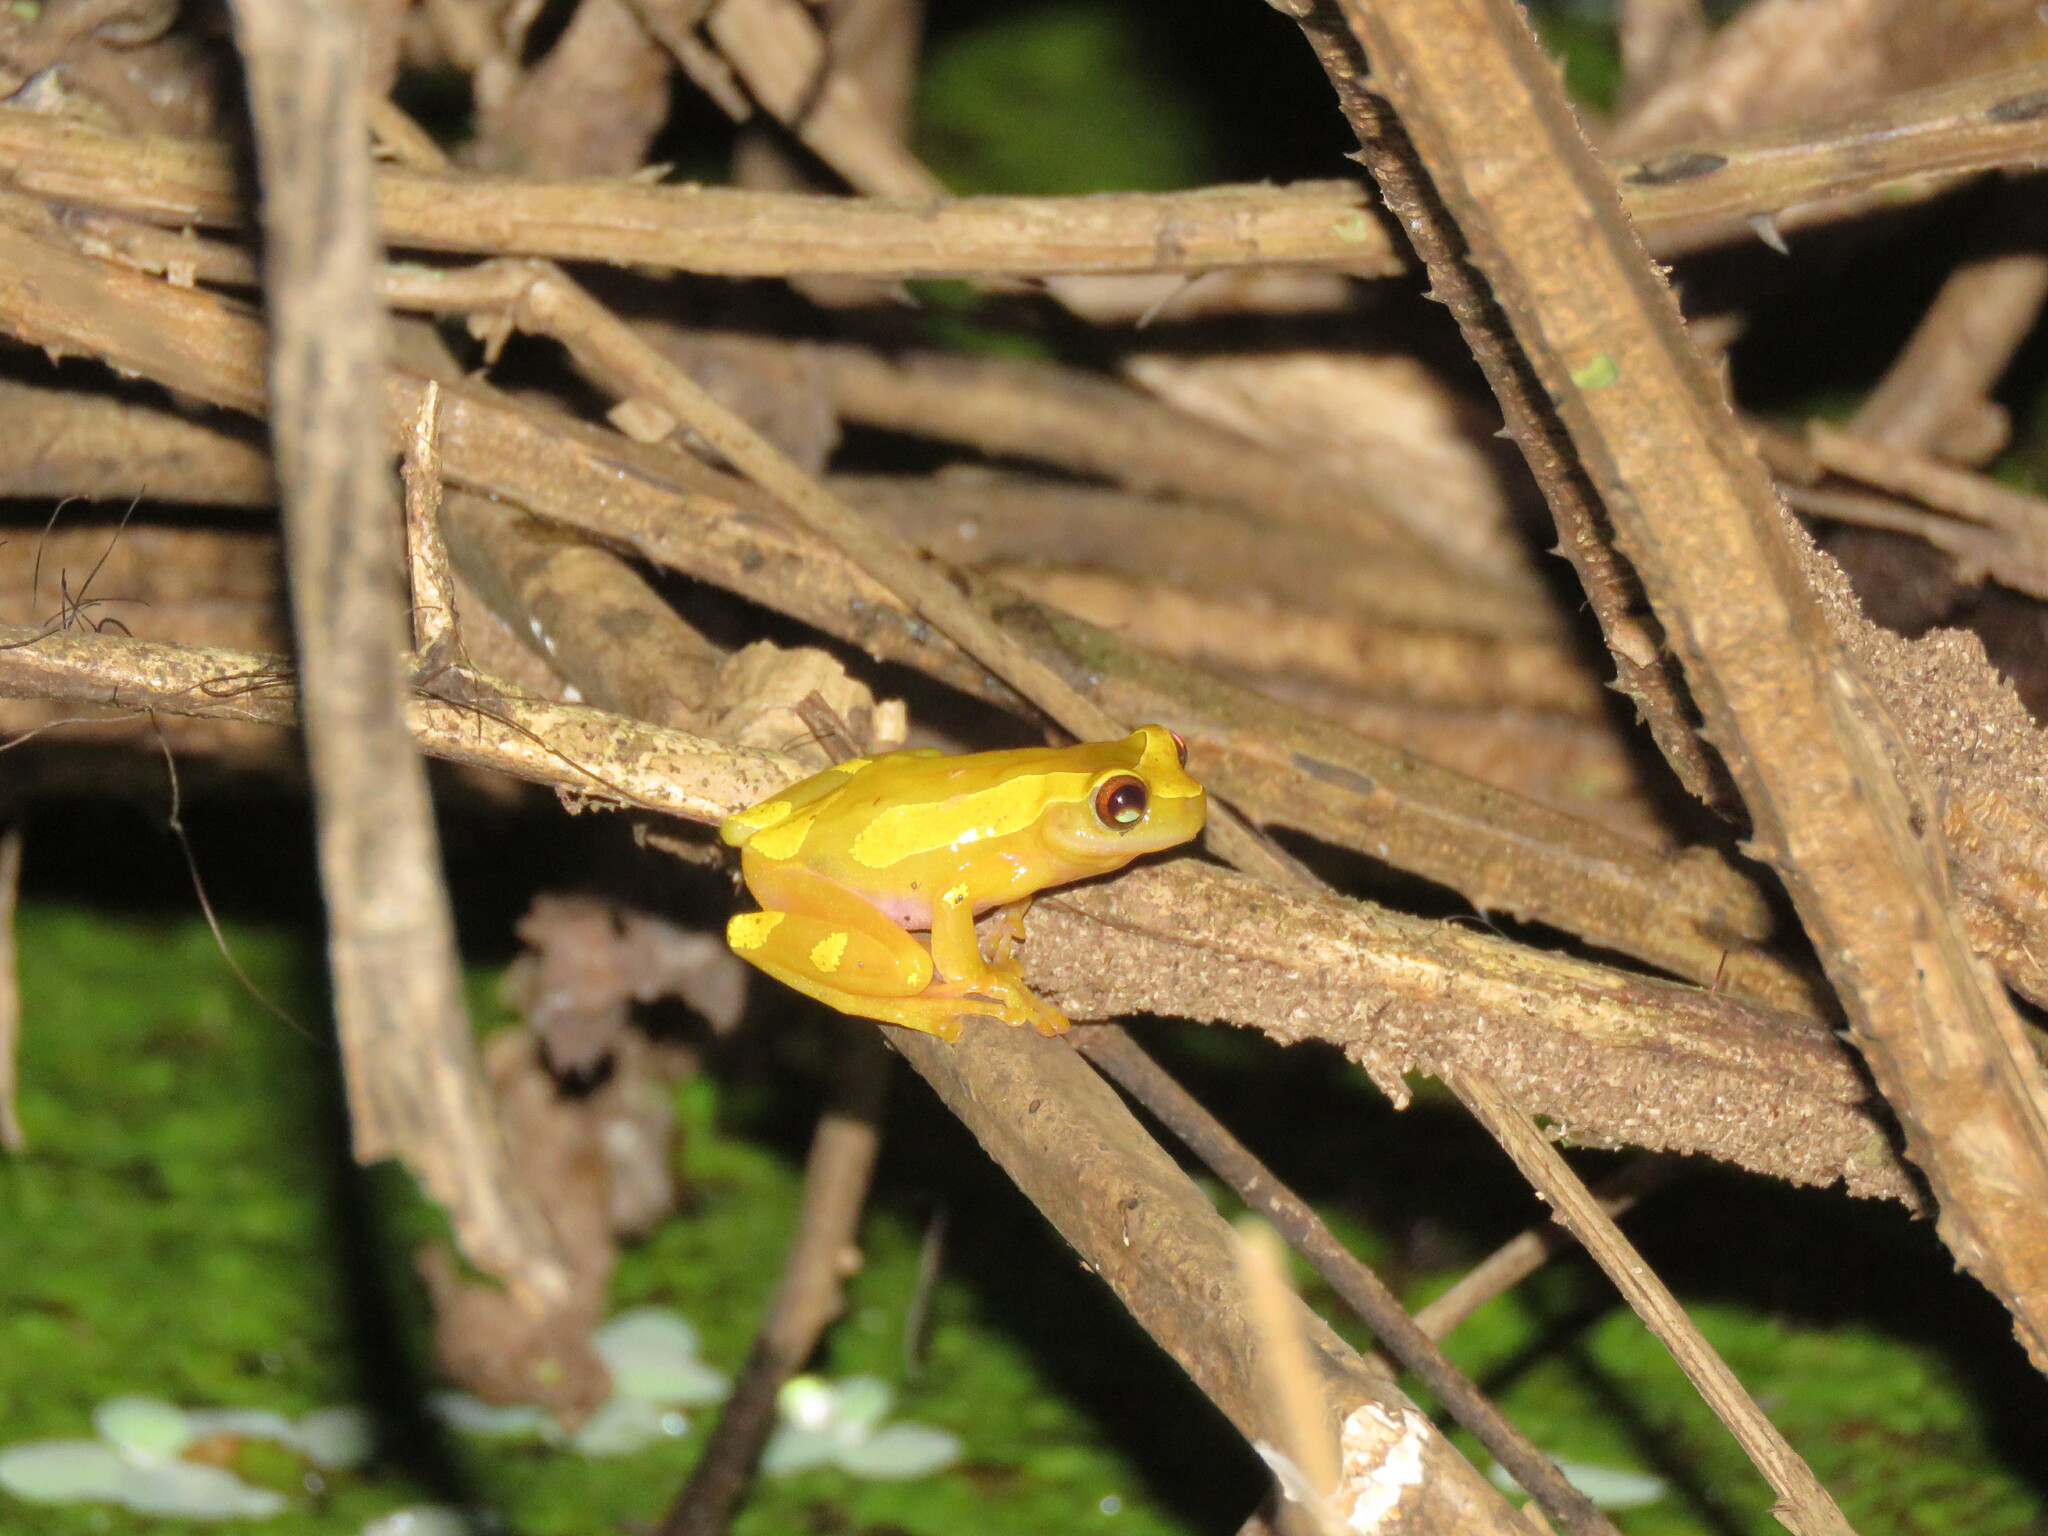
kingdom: Animalia
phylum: Chordata
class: Amphibia
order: Anura
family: Hylidae
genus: Dendropsophus
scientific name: Dendropsophus arndti
